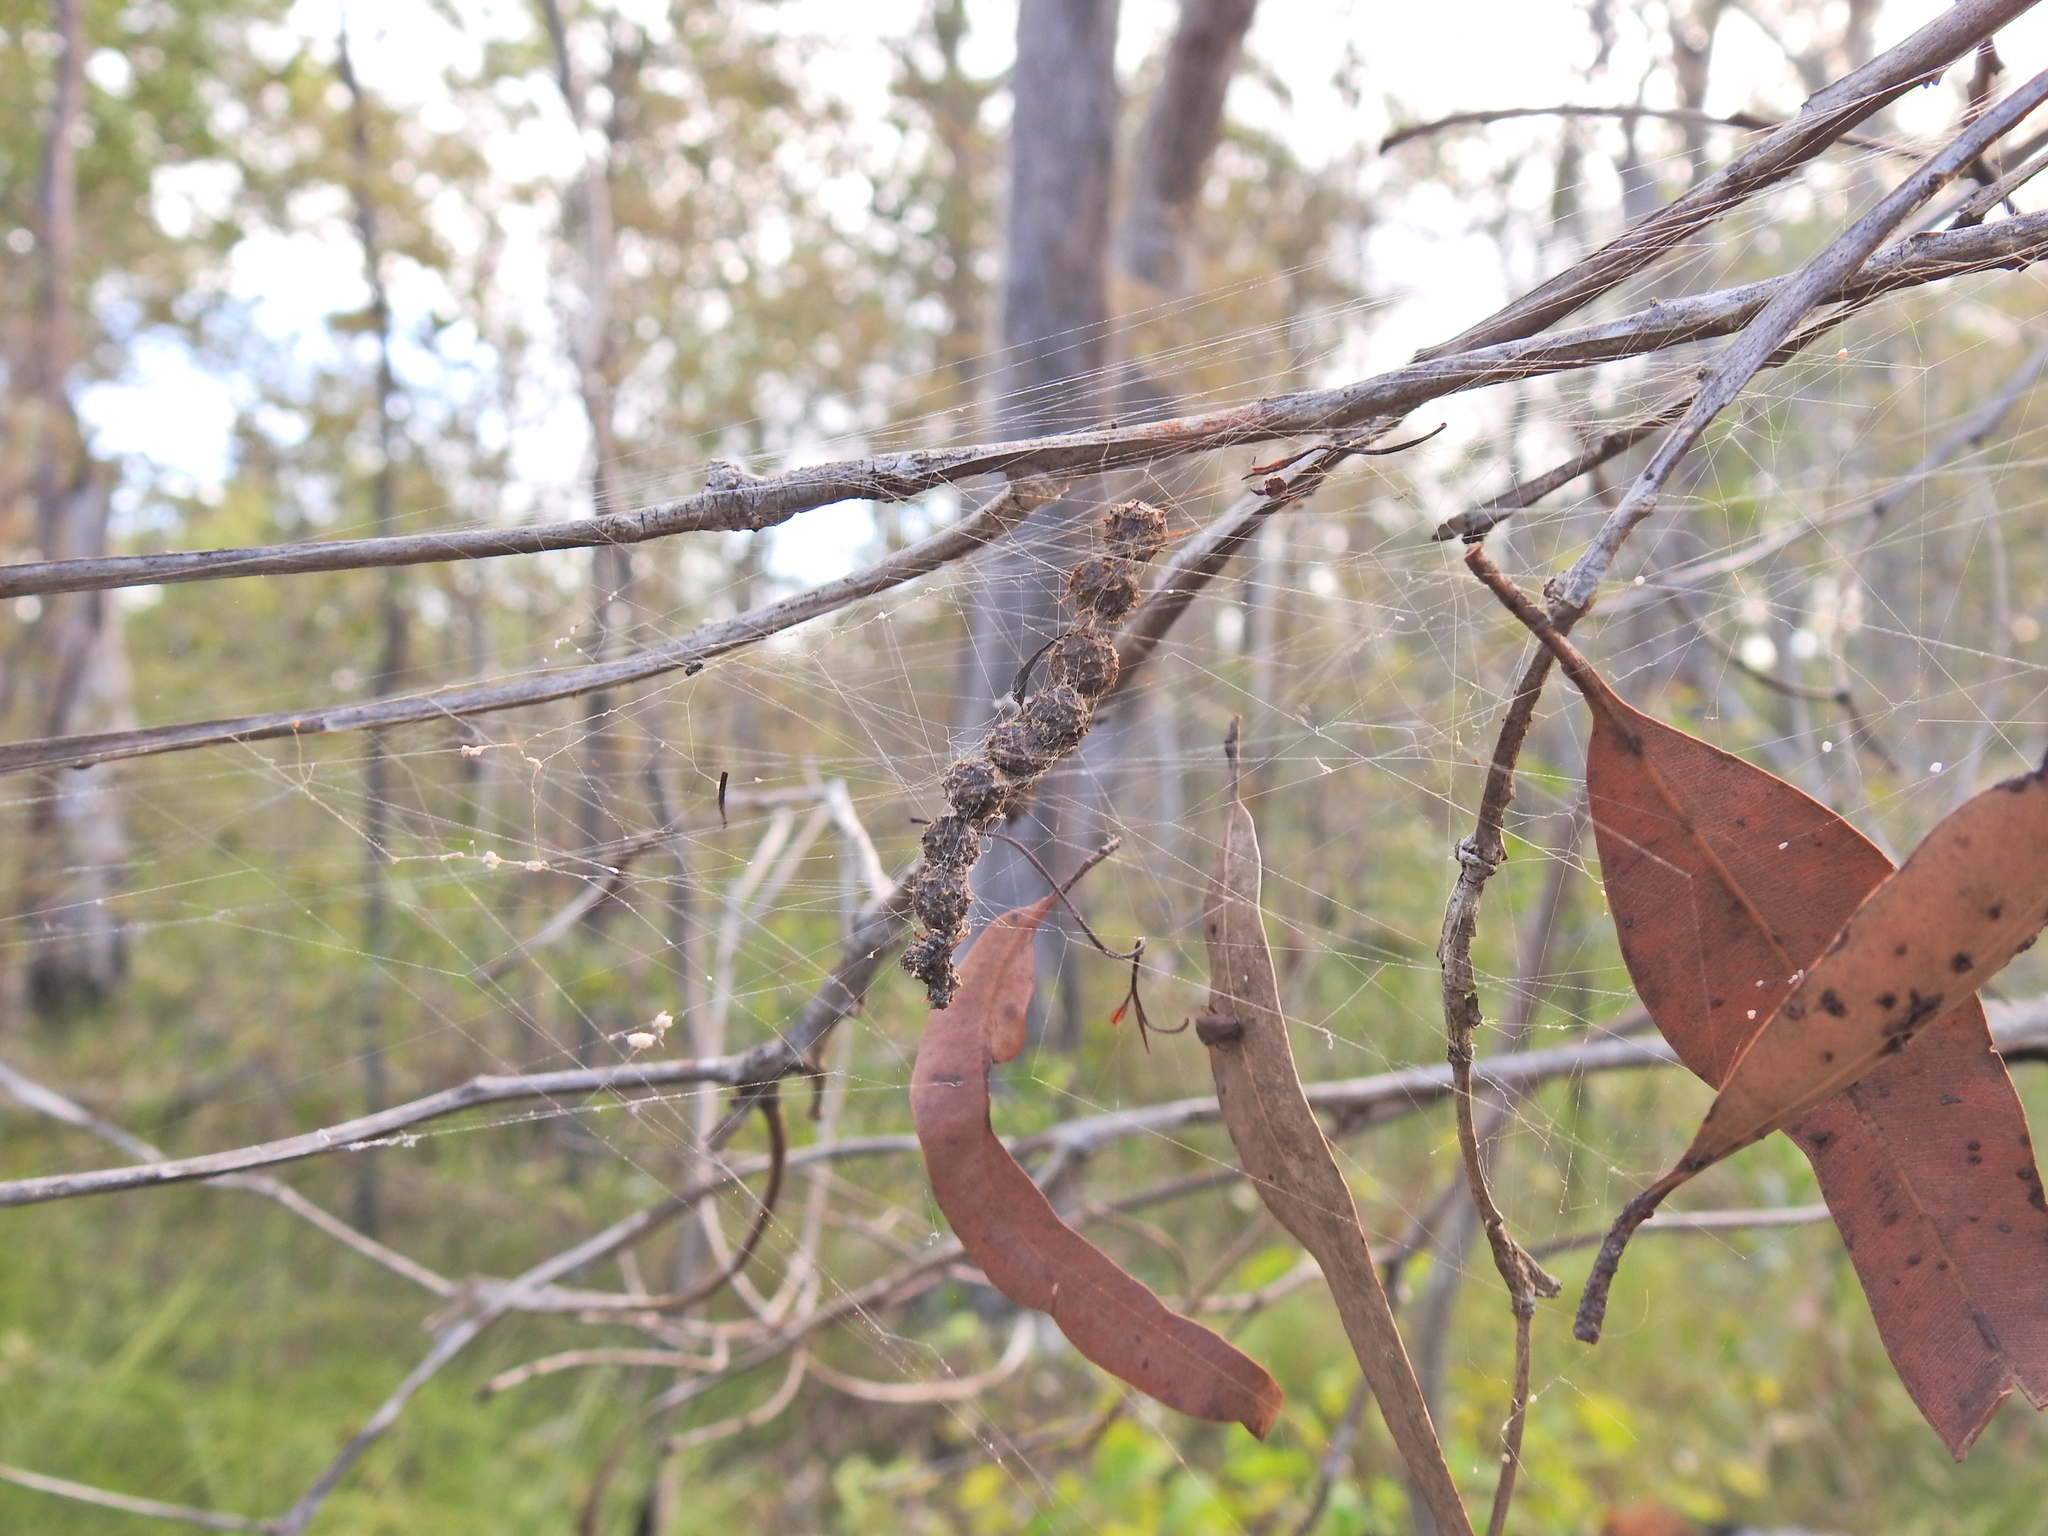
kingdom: Animalia
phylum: Arthropoda
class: Arachnida
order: Araneae
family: Araneidae
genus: Celaenia
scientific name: Celaenia calotoides
